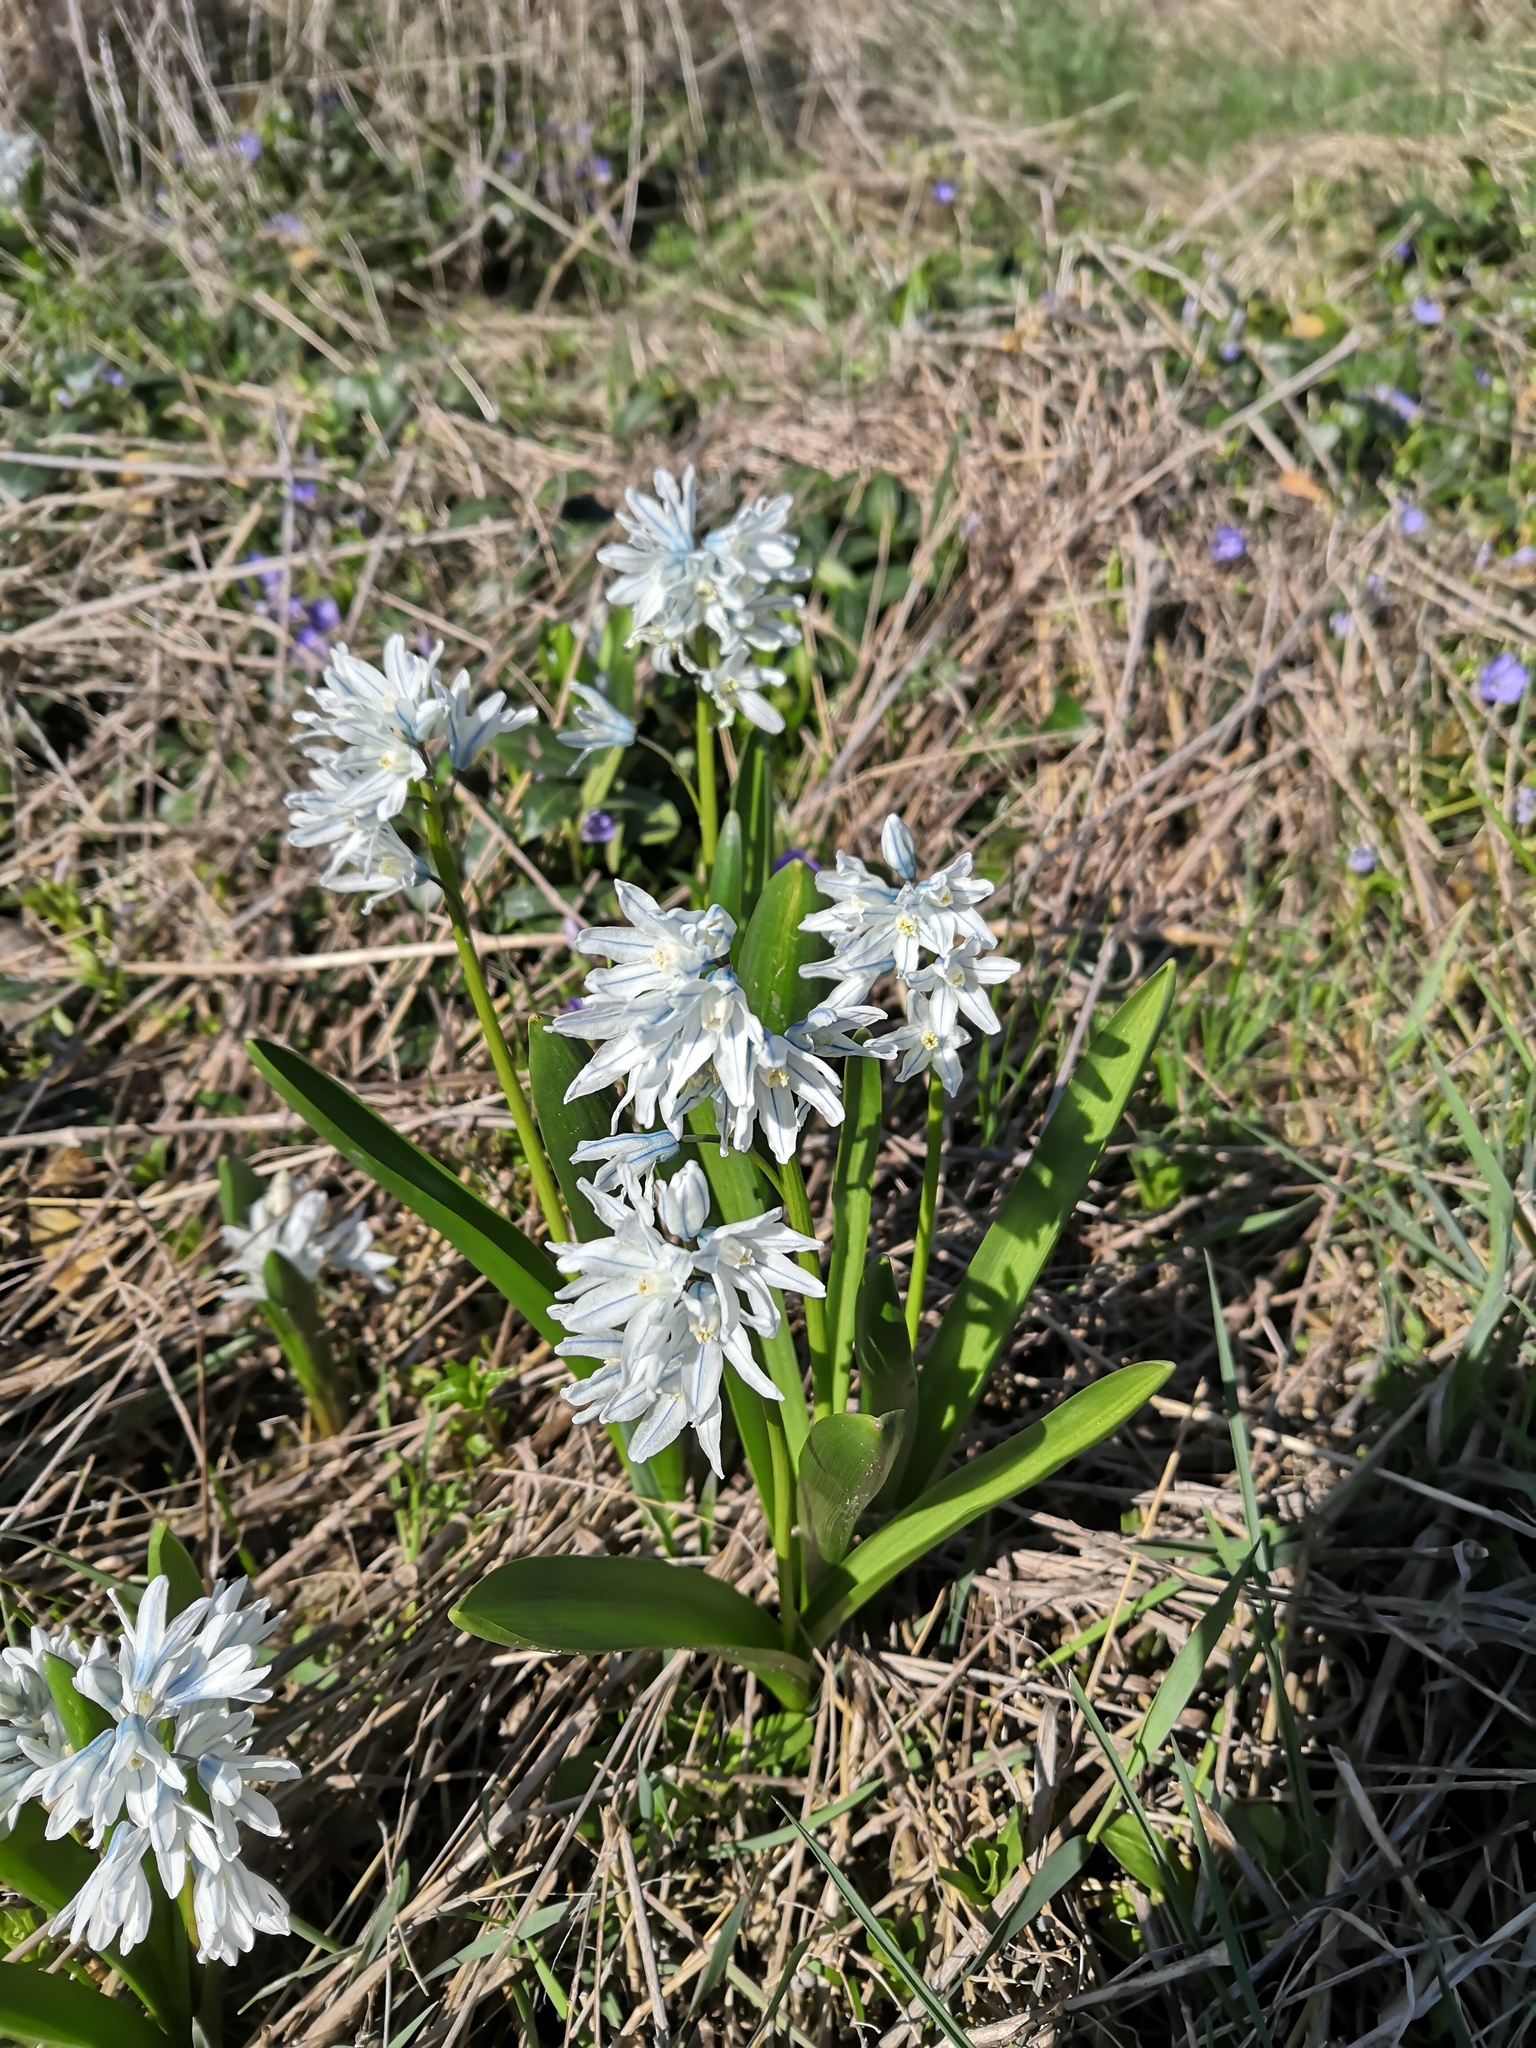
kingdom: Plantae
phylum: Tracheophyta
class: Liliopsida
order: Asparagales
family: Asparagaceae
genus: Puschkinia
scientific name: Puschkinia scilloides
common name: Striped squill
